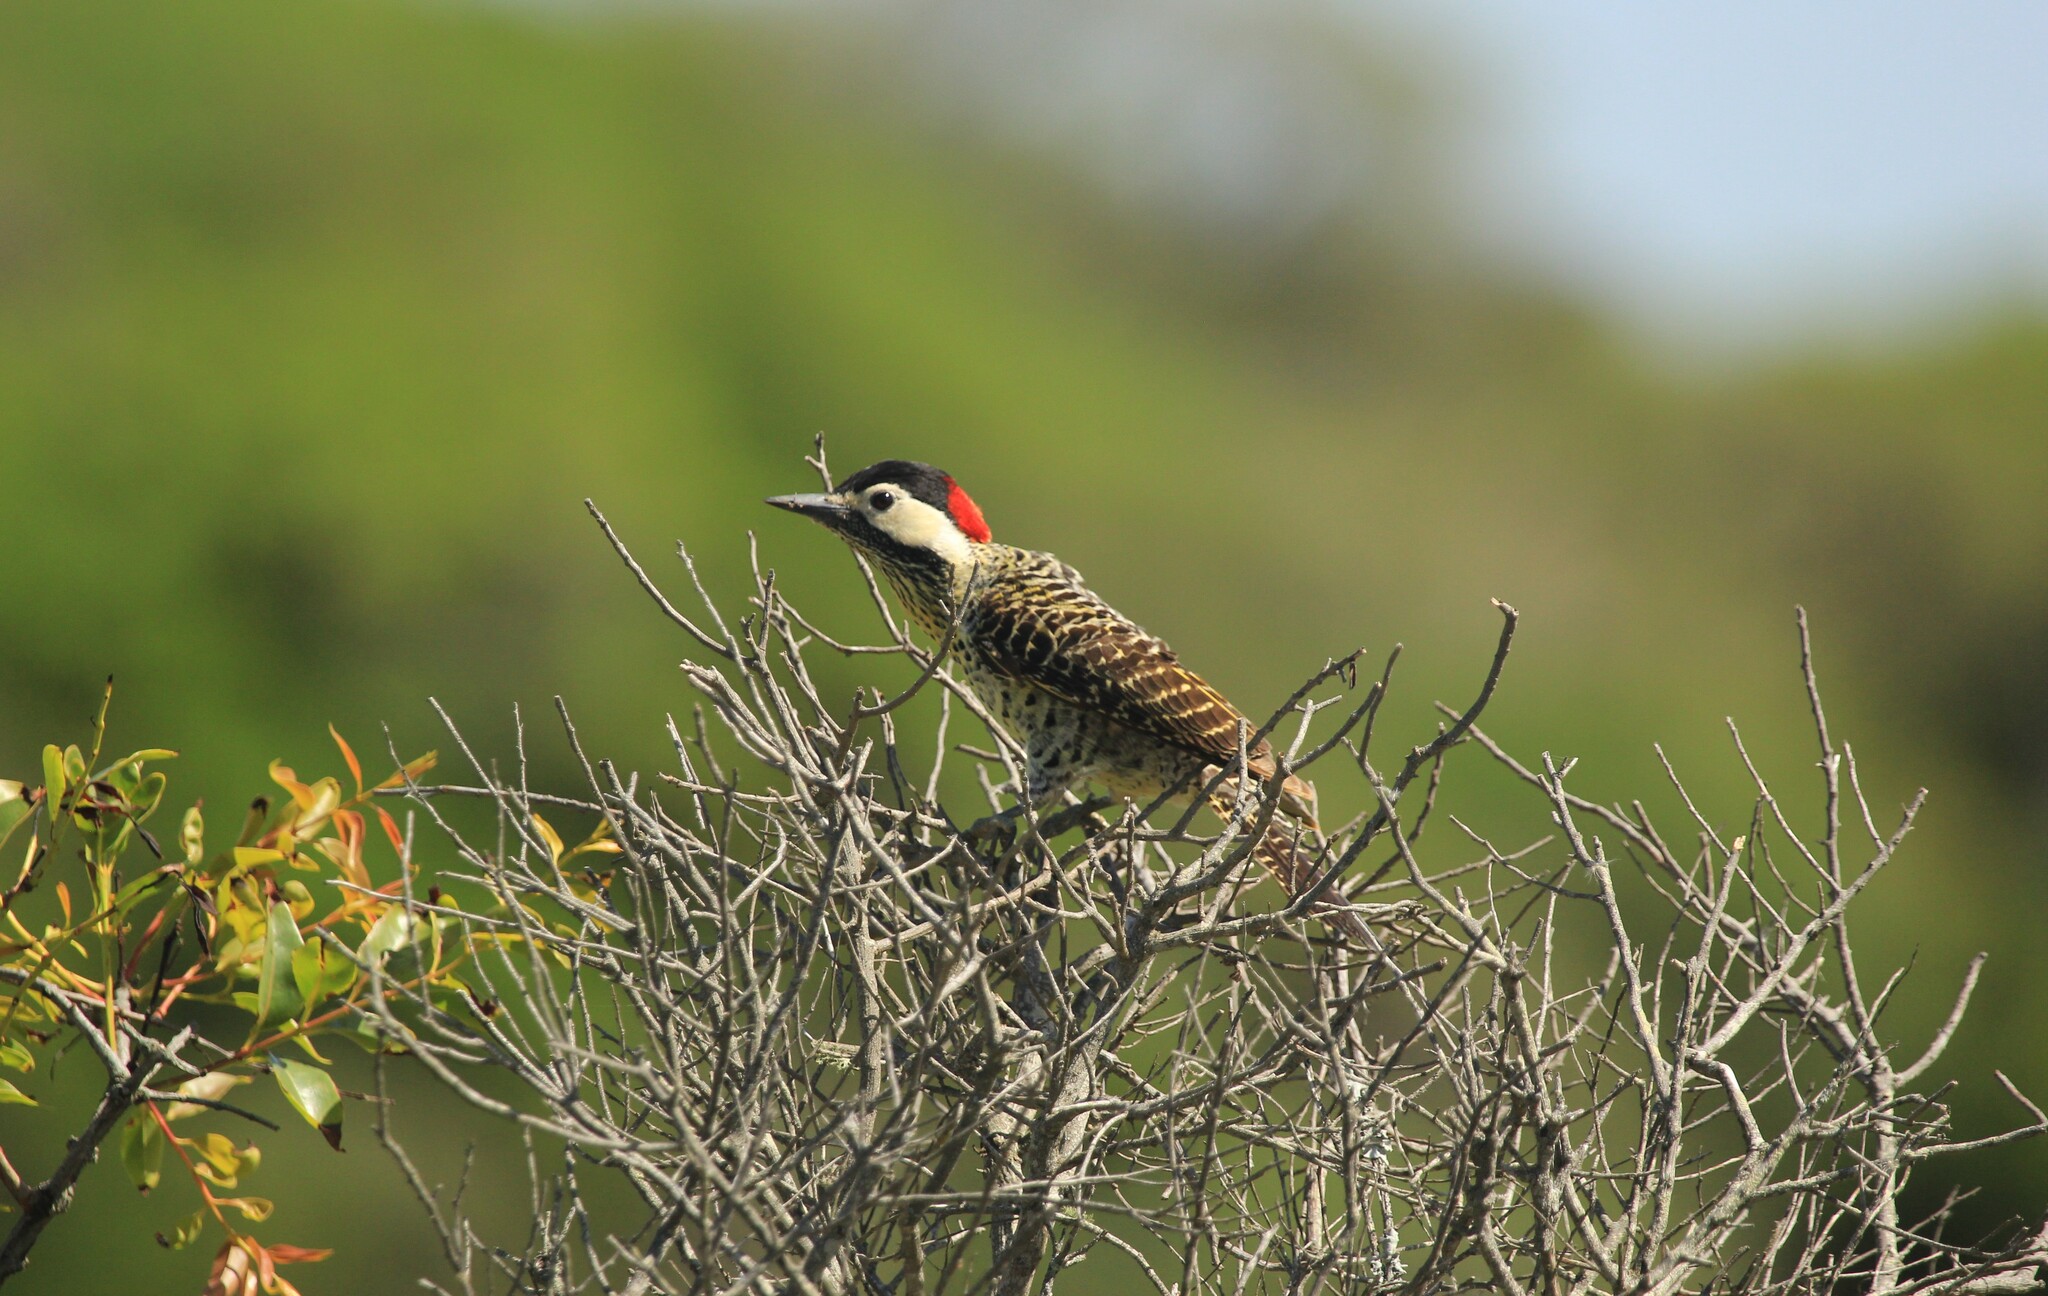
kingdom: Animalia
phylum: Chordata
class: Aves
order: Piciformes
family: Picidae
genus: Colaptes
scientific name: Colaptes melanochloros
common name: Green-barred woodpecker
